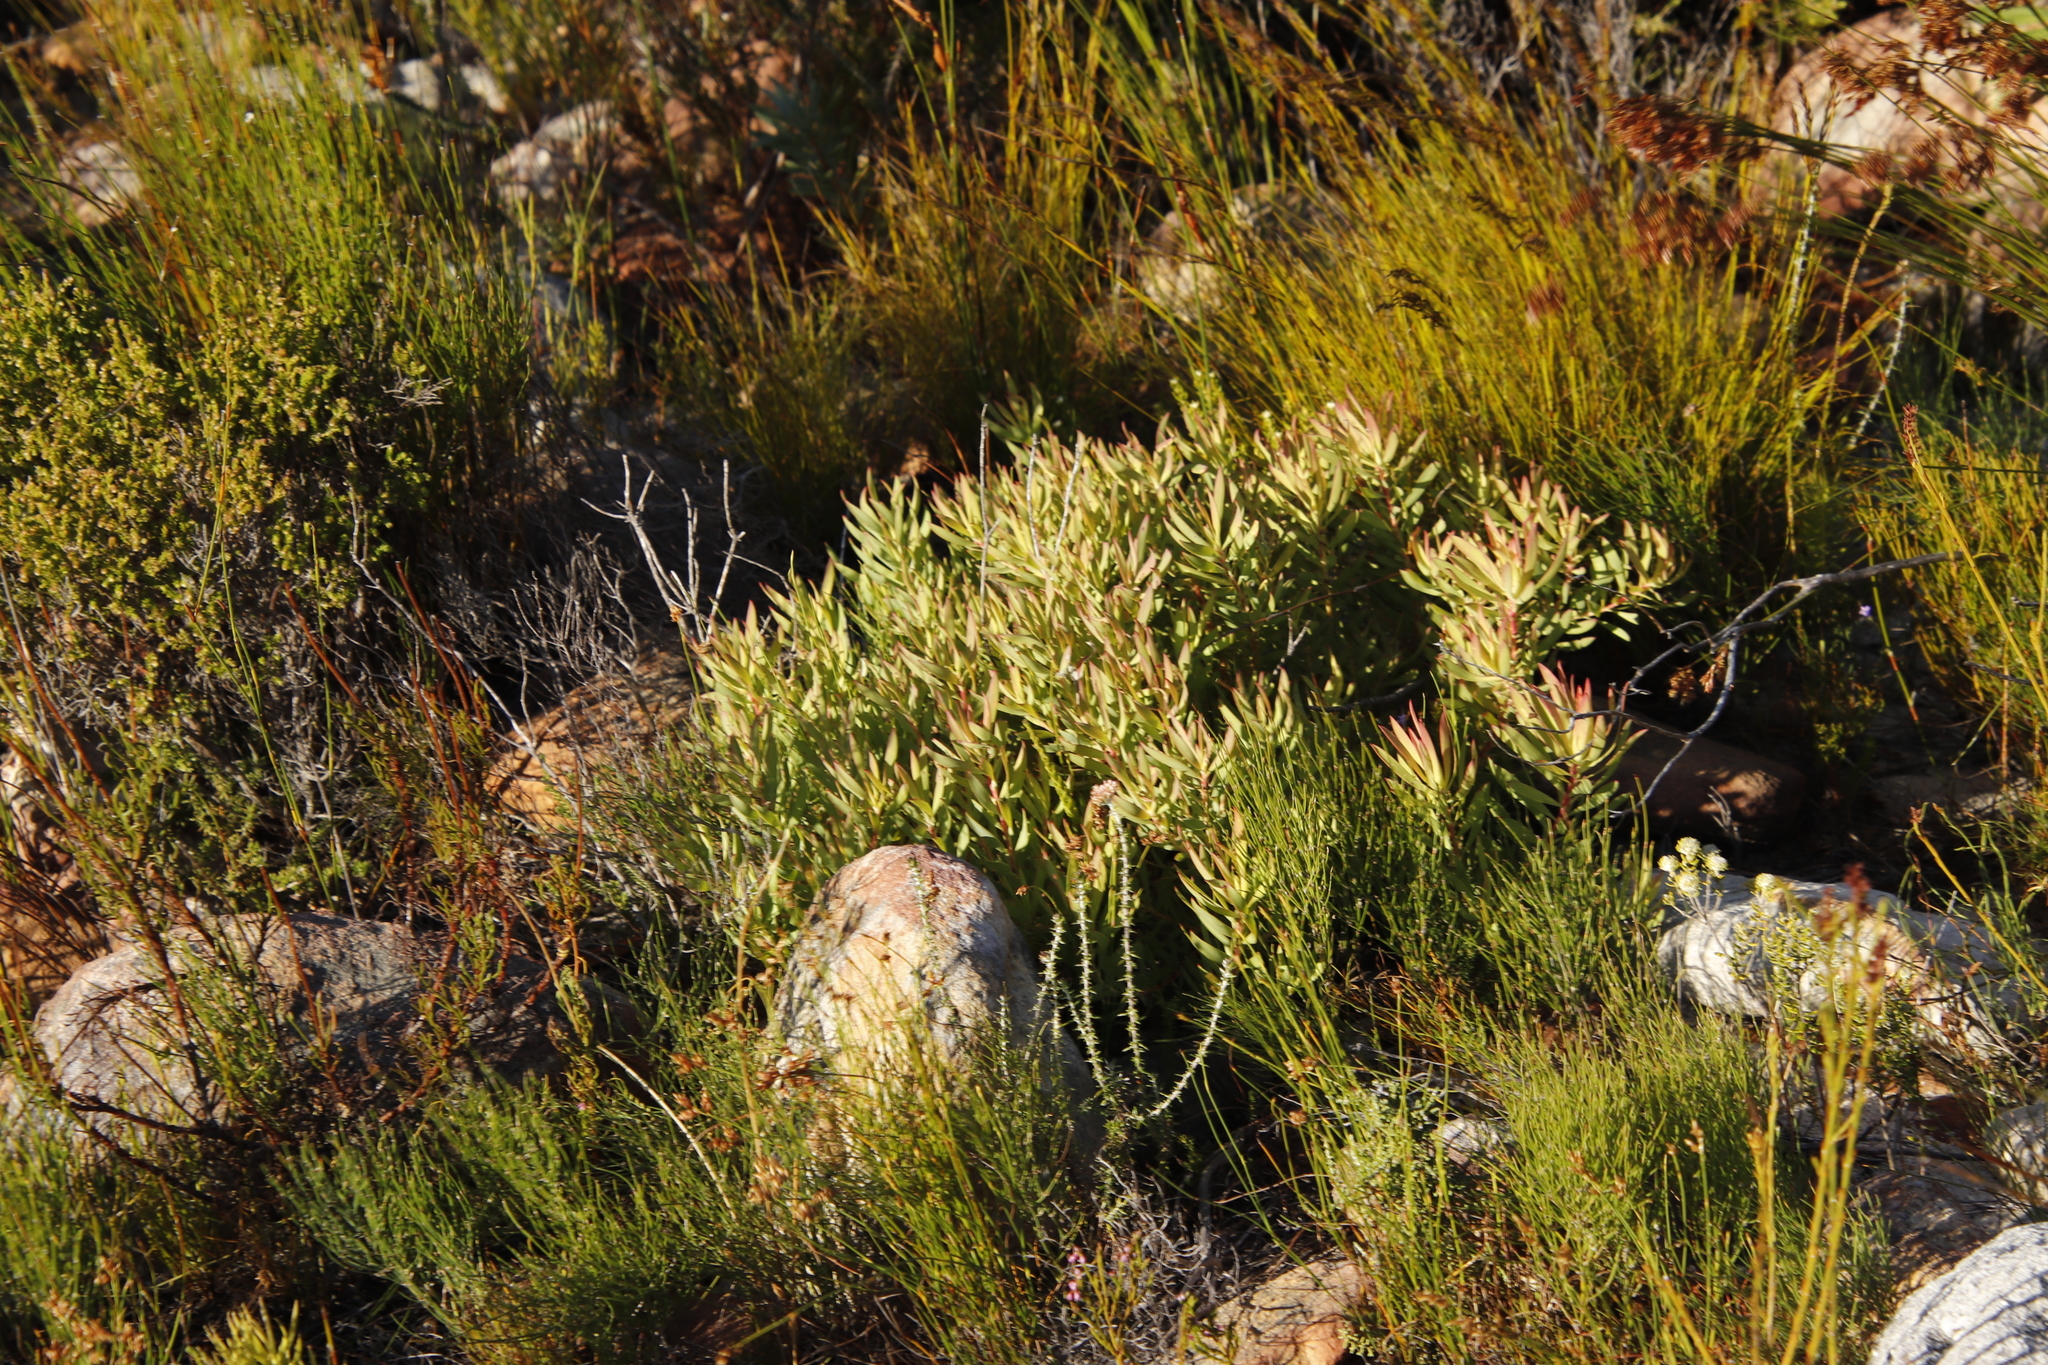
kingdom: Plantae
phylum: Tracheophyta
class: Magnoliopsida
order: Proteales
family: Proteaceae
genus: Leucadendron
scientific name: Leucadendron salignum
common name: Common sunshine conebush
